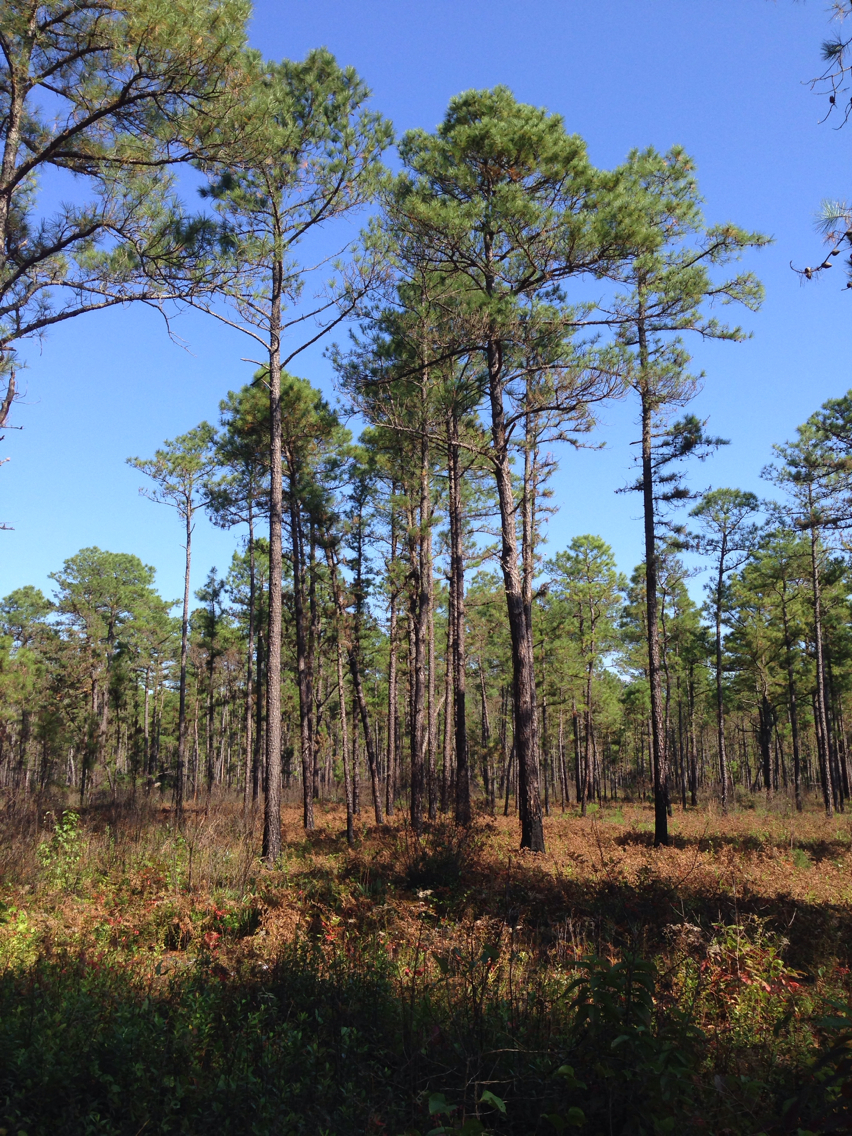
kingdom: Plantae
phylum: Tracheophyta
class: Pinopsida
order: Pinales
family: Pinaceae
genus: Pinus
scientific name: Pinus palustris
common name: Longleaf pine
